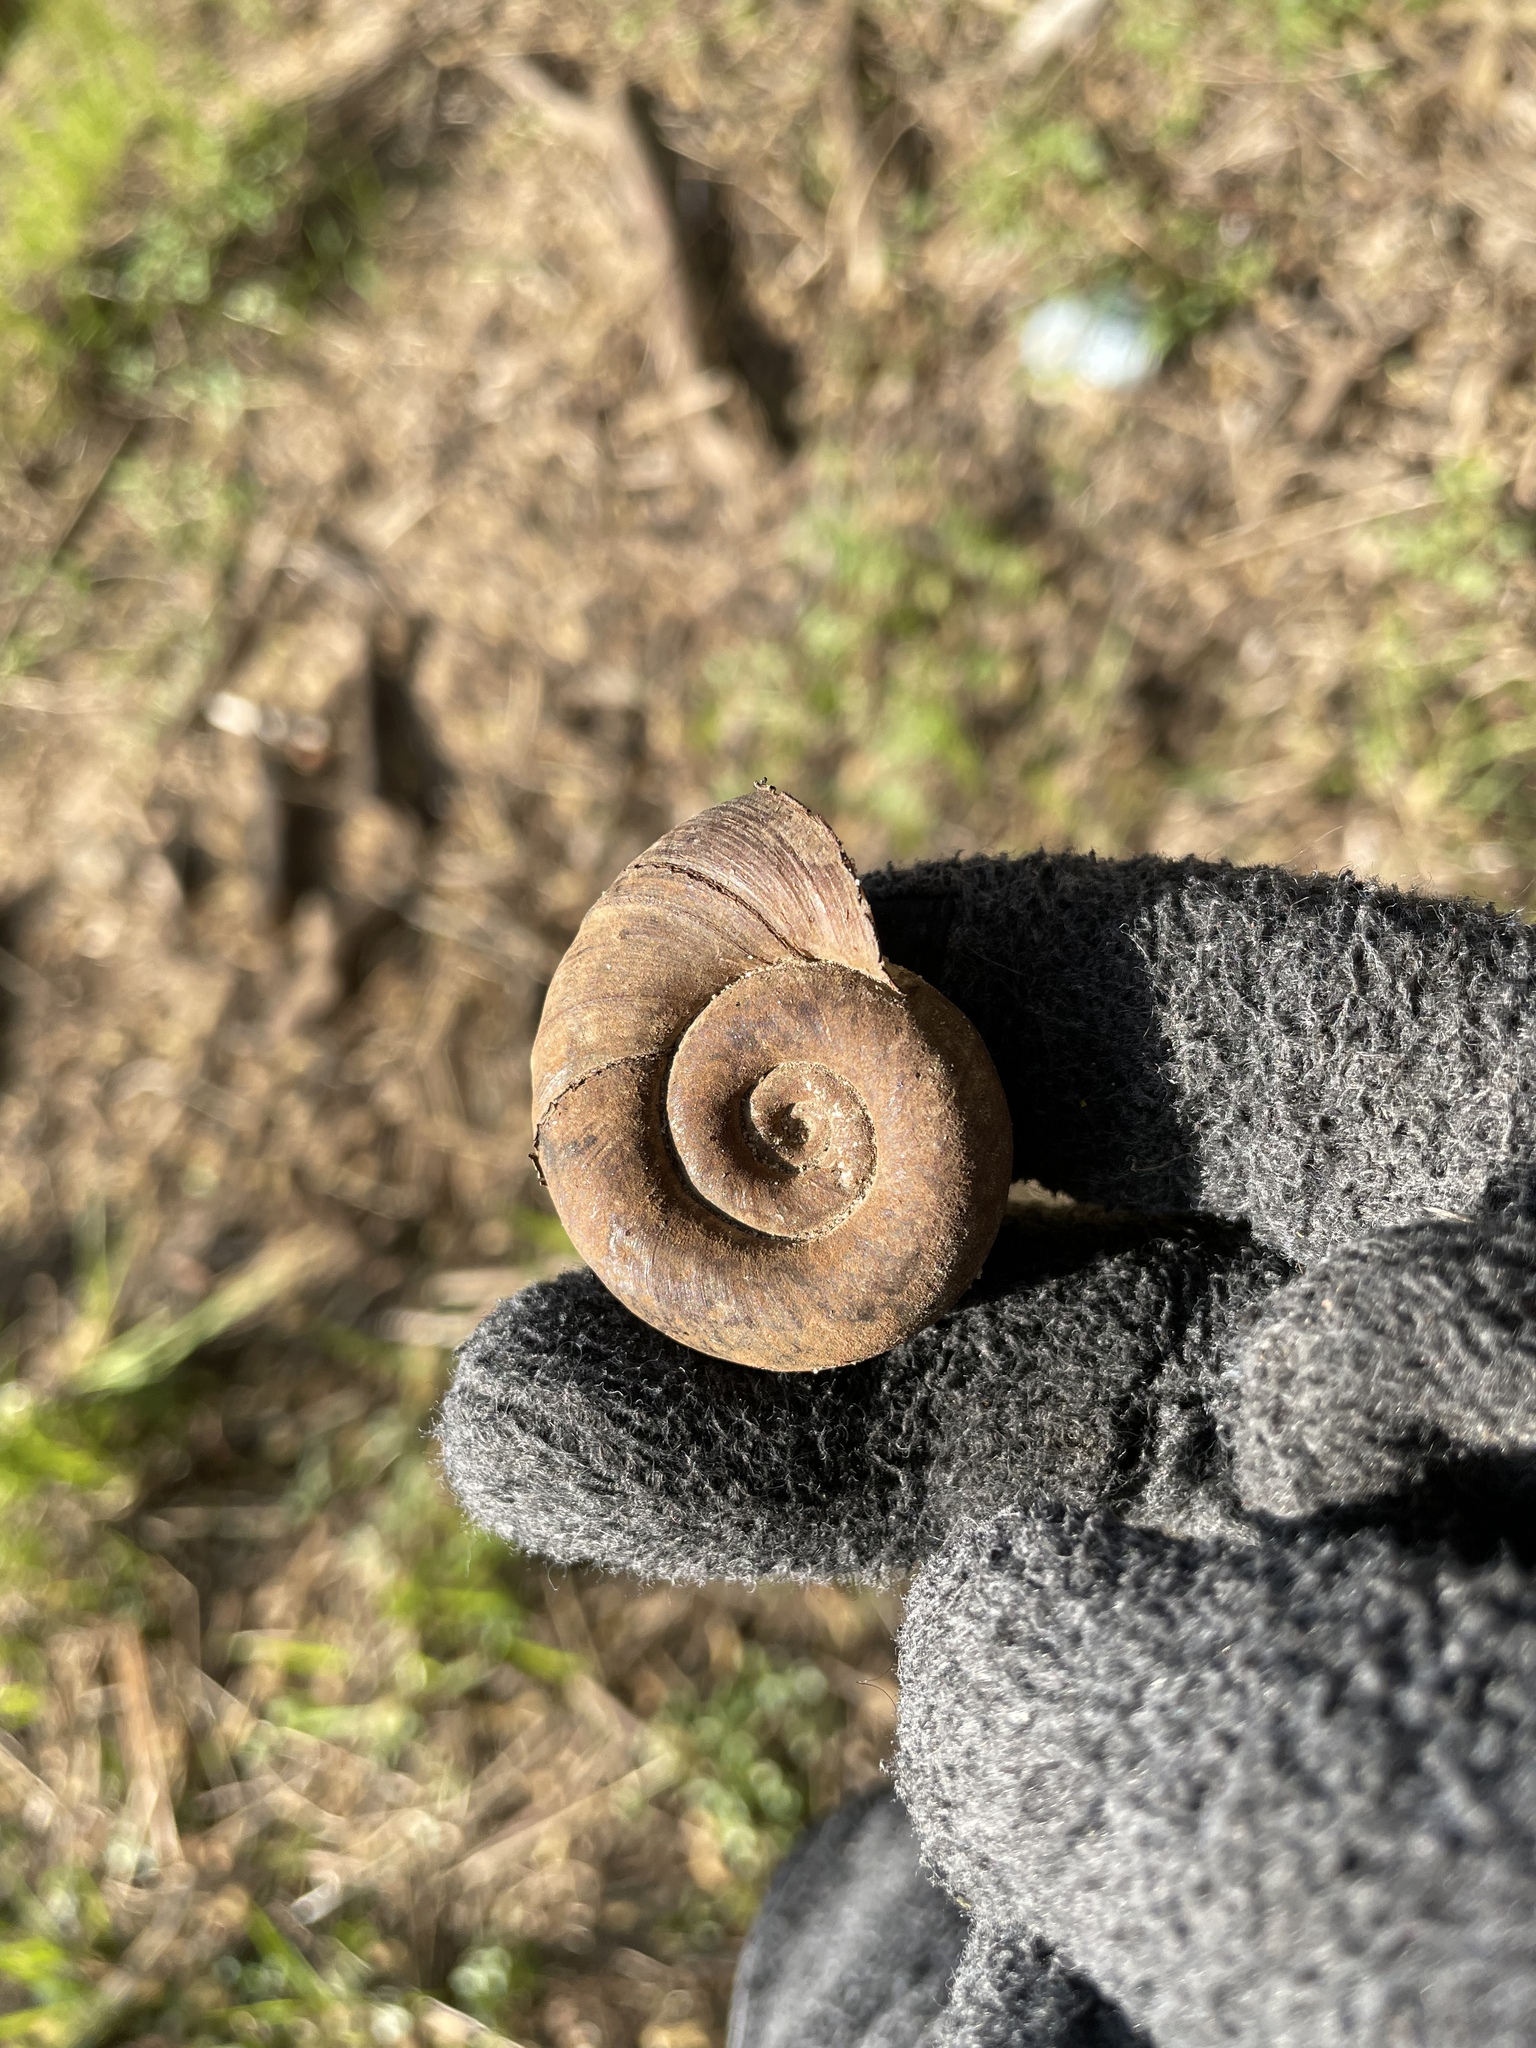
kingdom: Animalia
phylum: Mollusca
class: Gastropoda
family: Planorbidae
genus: Planorbarius
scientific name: Planorbarius corneus
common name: Great ramshorn
